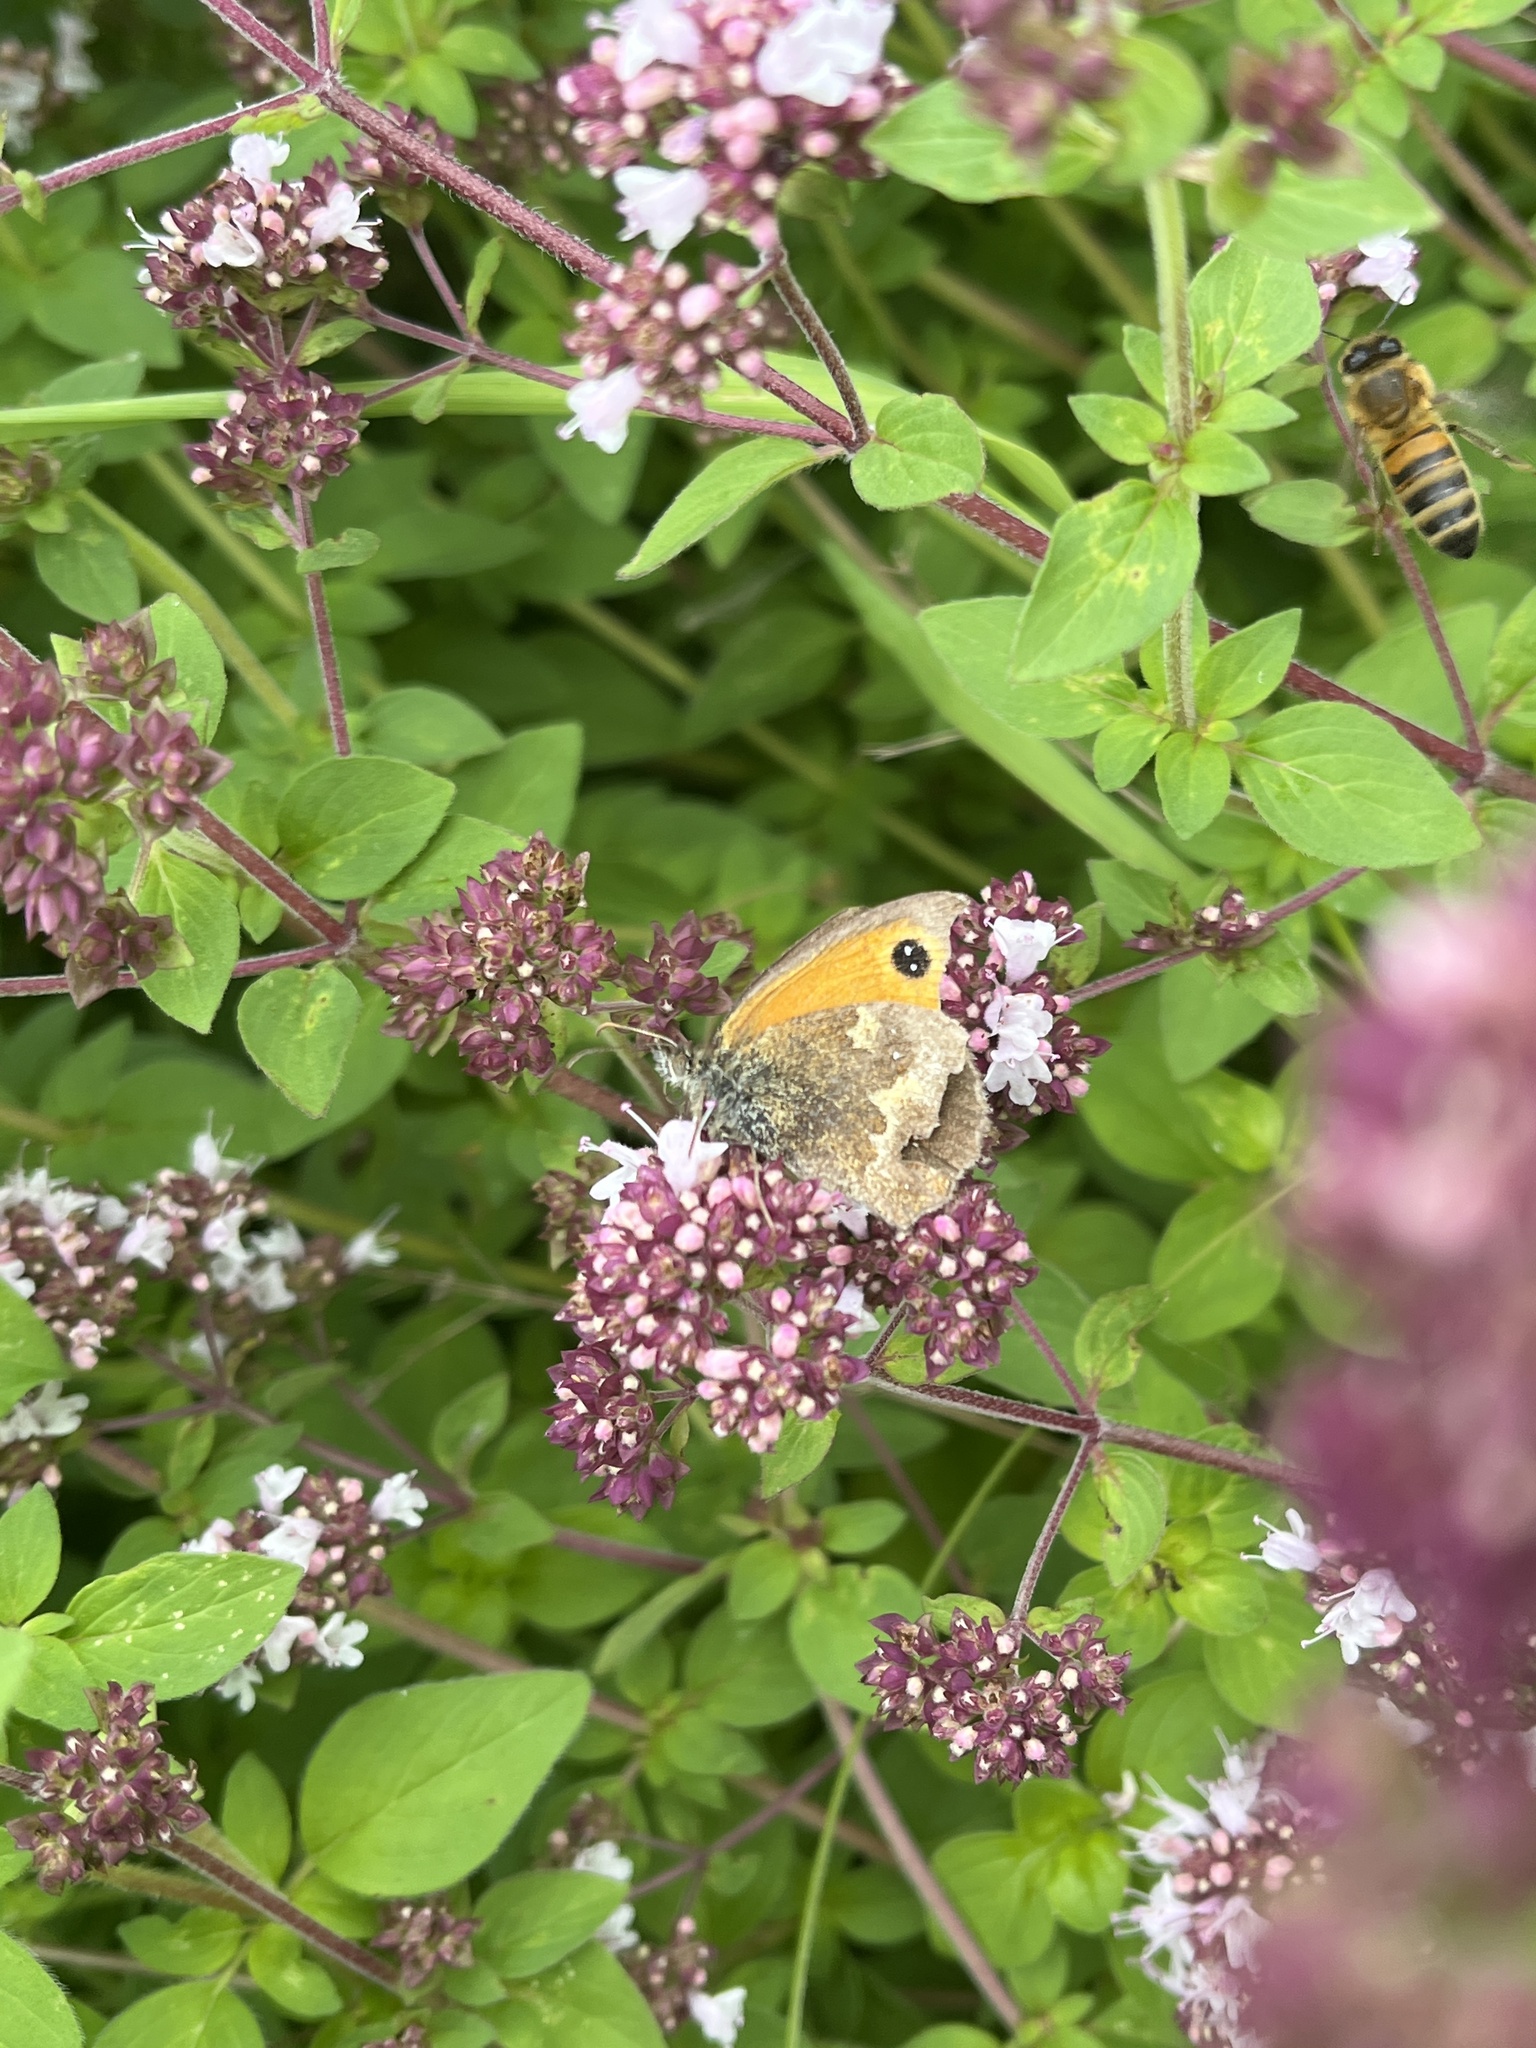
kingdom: Animalia
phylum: Arthropoda
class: Insecta
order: Lepidoptera
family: Nymphalidae
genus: Pyronia
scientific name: Pyronia tithonus
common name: Gatekeeper
